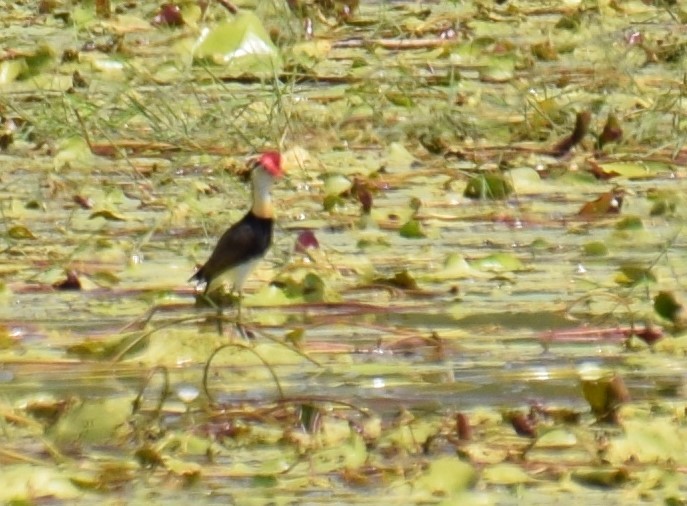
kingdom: Animalia
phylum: Chordata
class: Aves
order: Charadriiformes
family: Jacanidae
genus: Irediparra
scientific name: Irediparra gallinacea
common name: Comb-crested jacana
